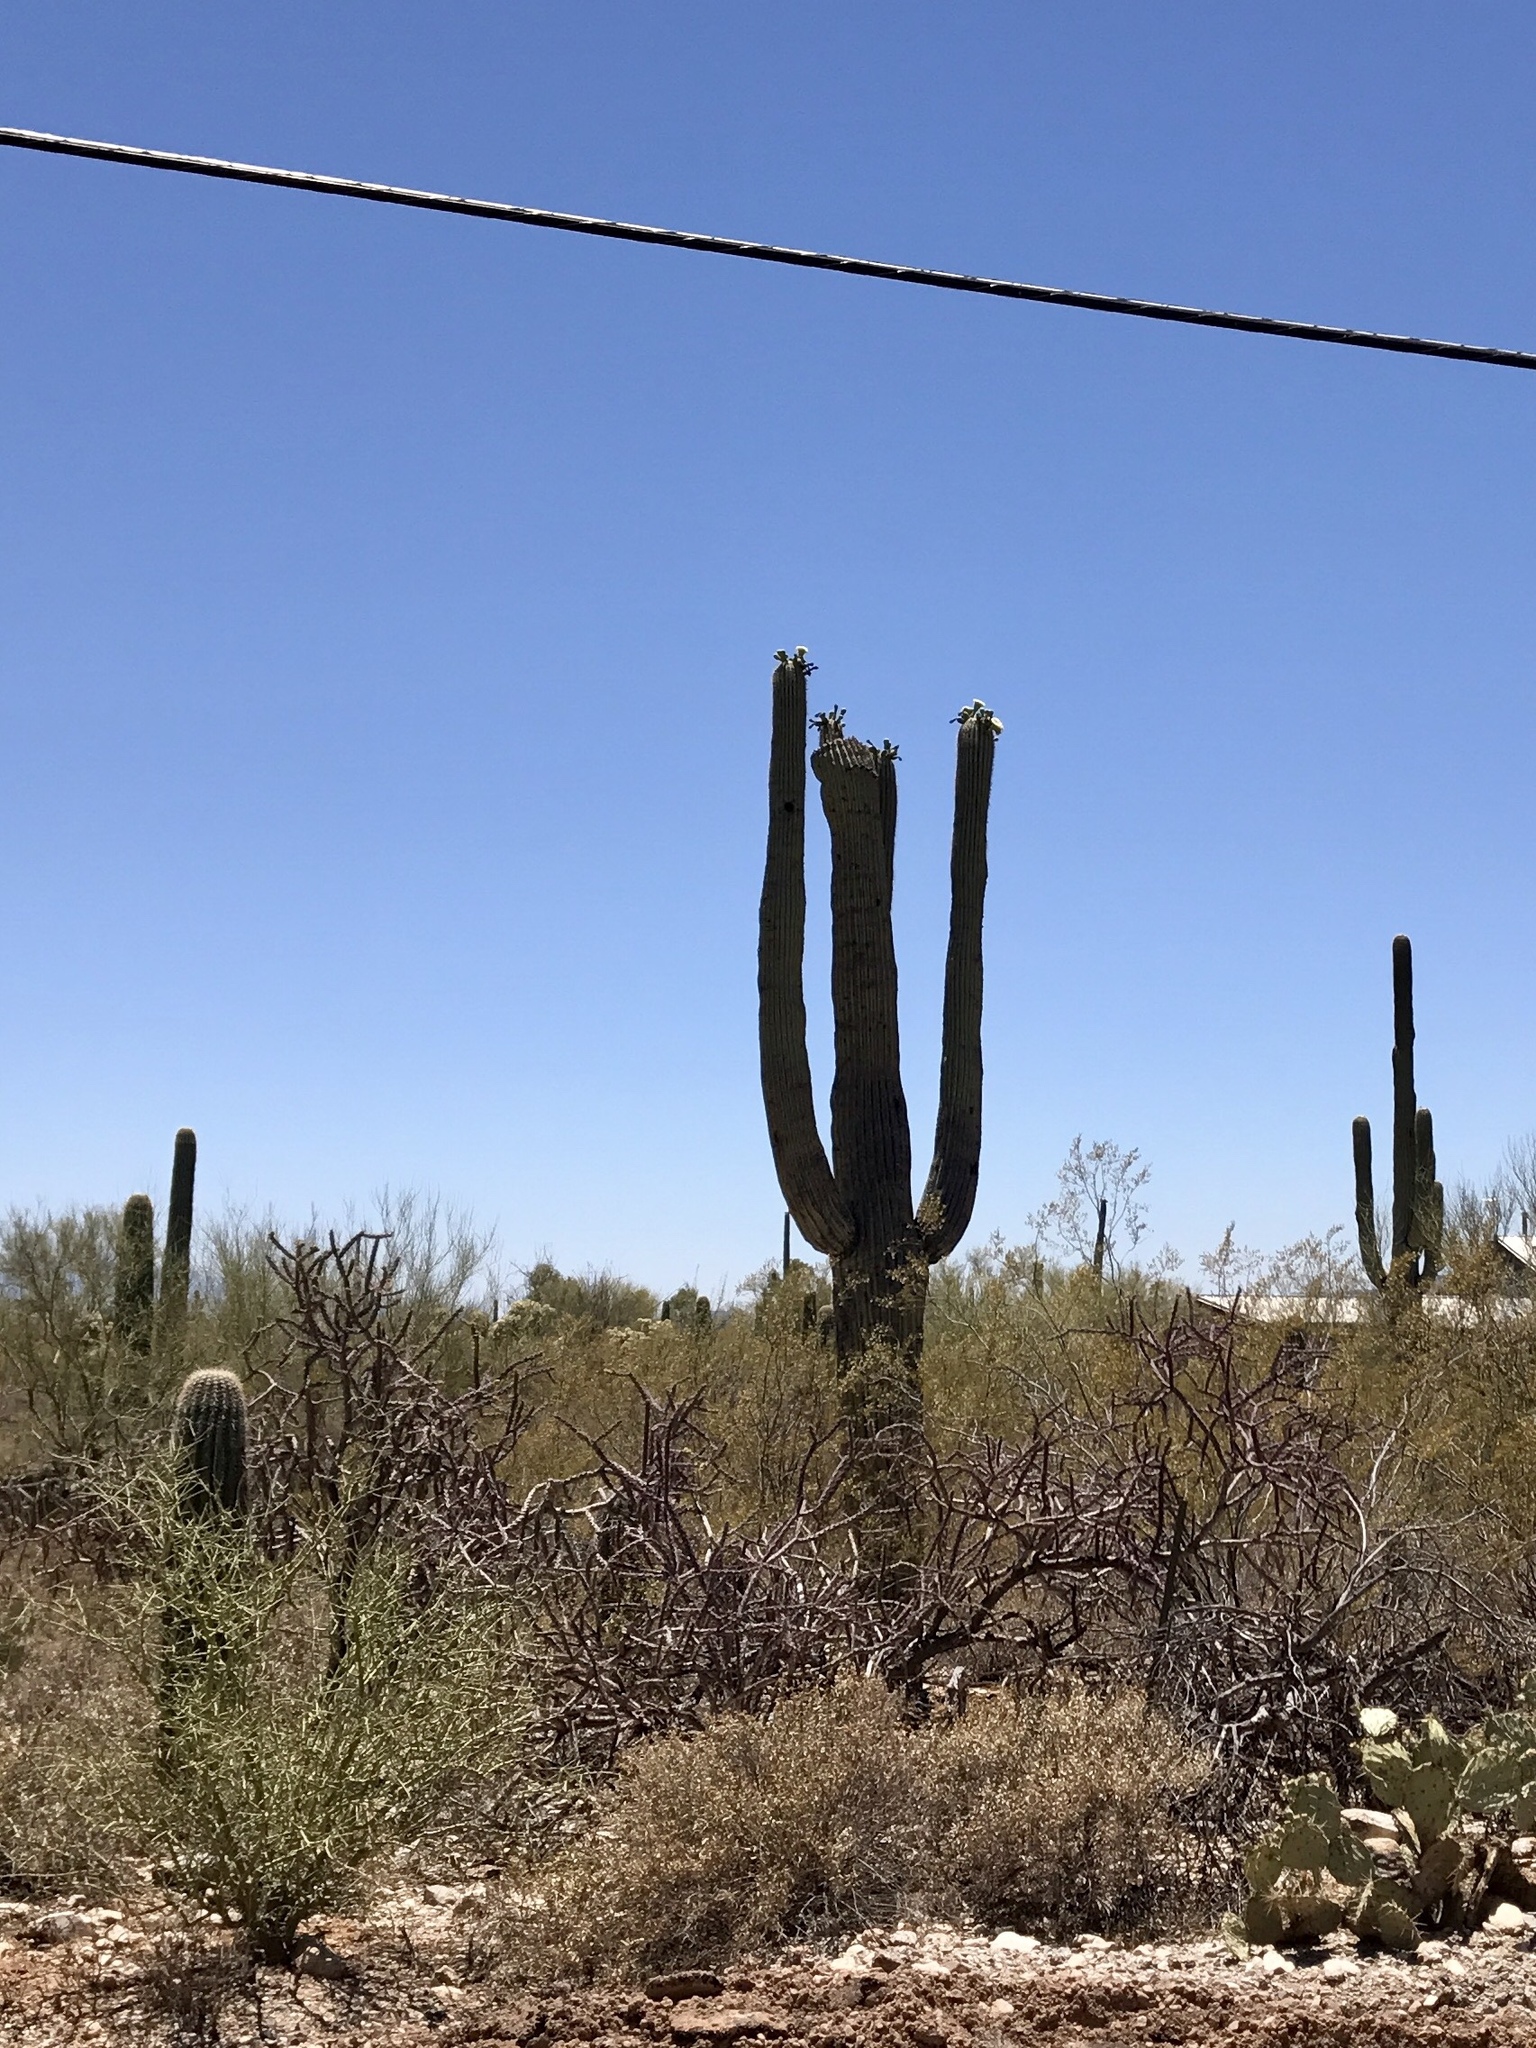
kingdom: Plantae
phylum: Tracheophyta
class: Magnoliopsida
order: Caryophyllales
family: Cactaceae
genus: Carnegiea
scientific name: Carnegiea gigantea
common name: Saguaro
